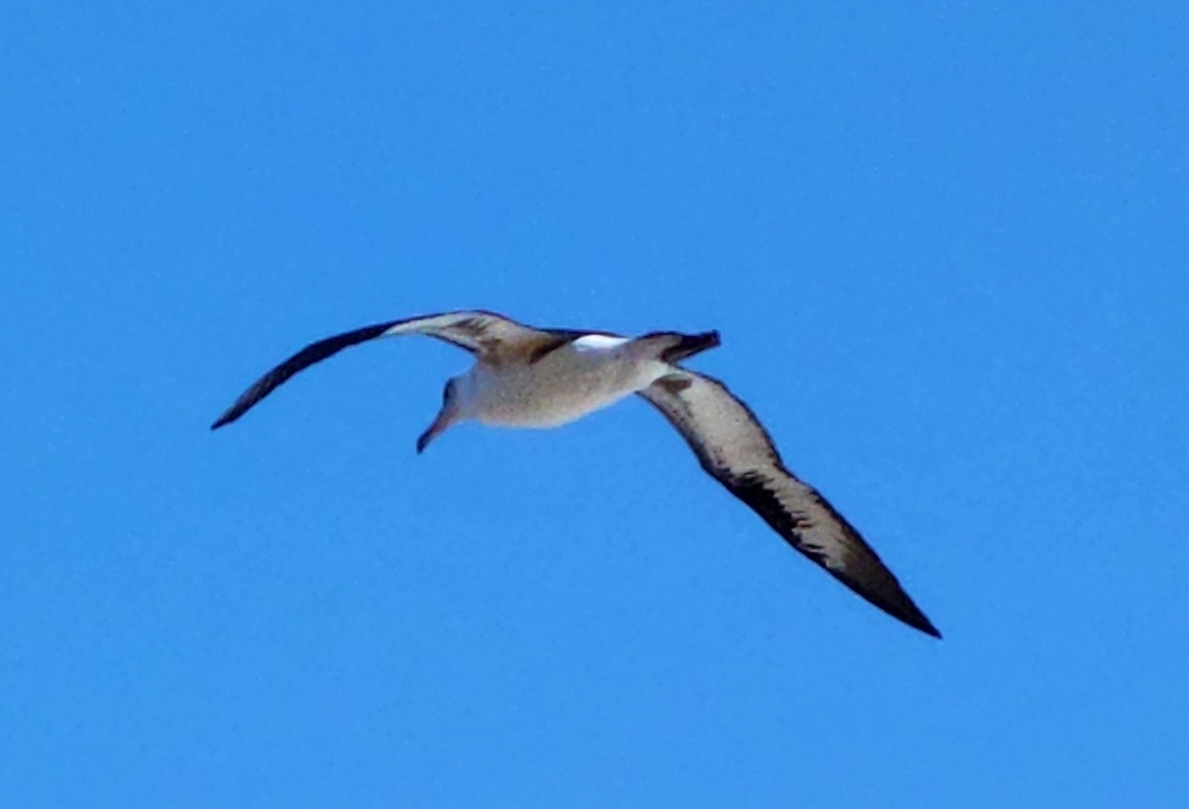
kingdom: Animalia
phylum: Chordata
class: Aves
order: Procellariiformes
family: Diomedeidae
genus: Phoebastria
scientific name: Phoebastria immutabilis
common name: Laysan albatross
